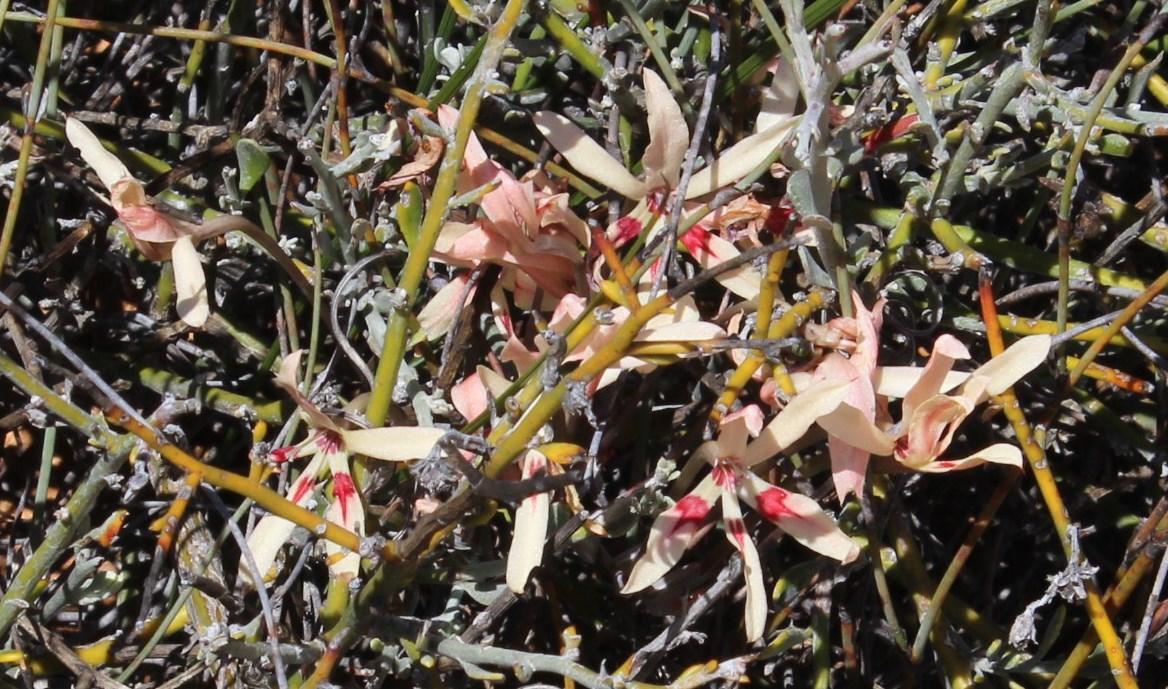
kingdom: Plantae
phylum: Tracheophyta
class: Liliopsida
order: Asparagales
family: Iridaceae
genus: Babiana
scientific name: Babiana brachystachys
